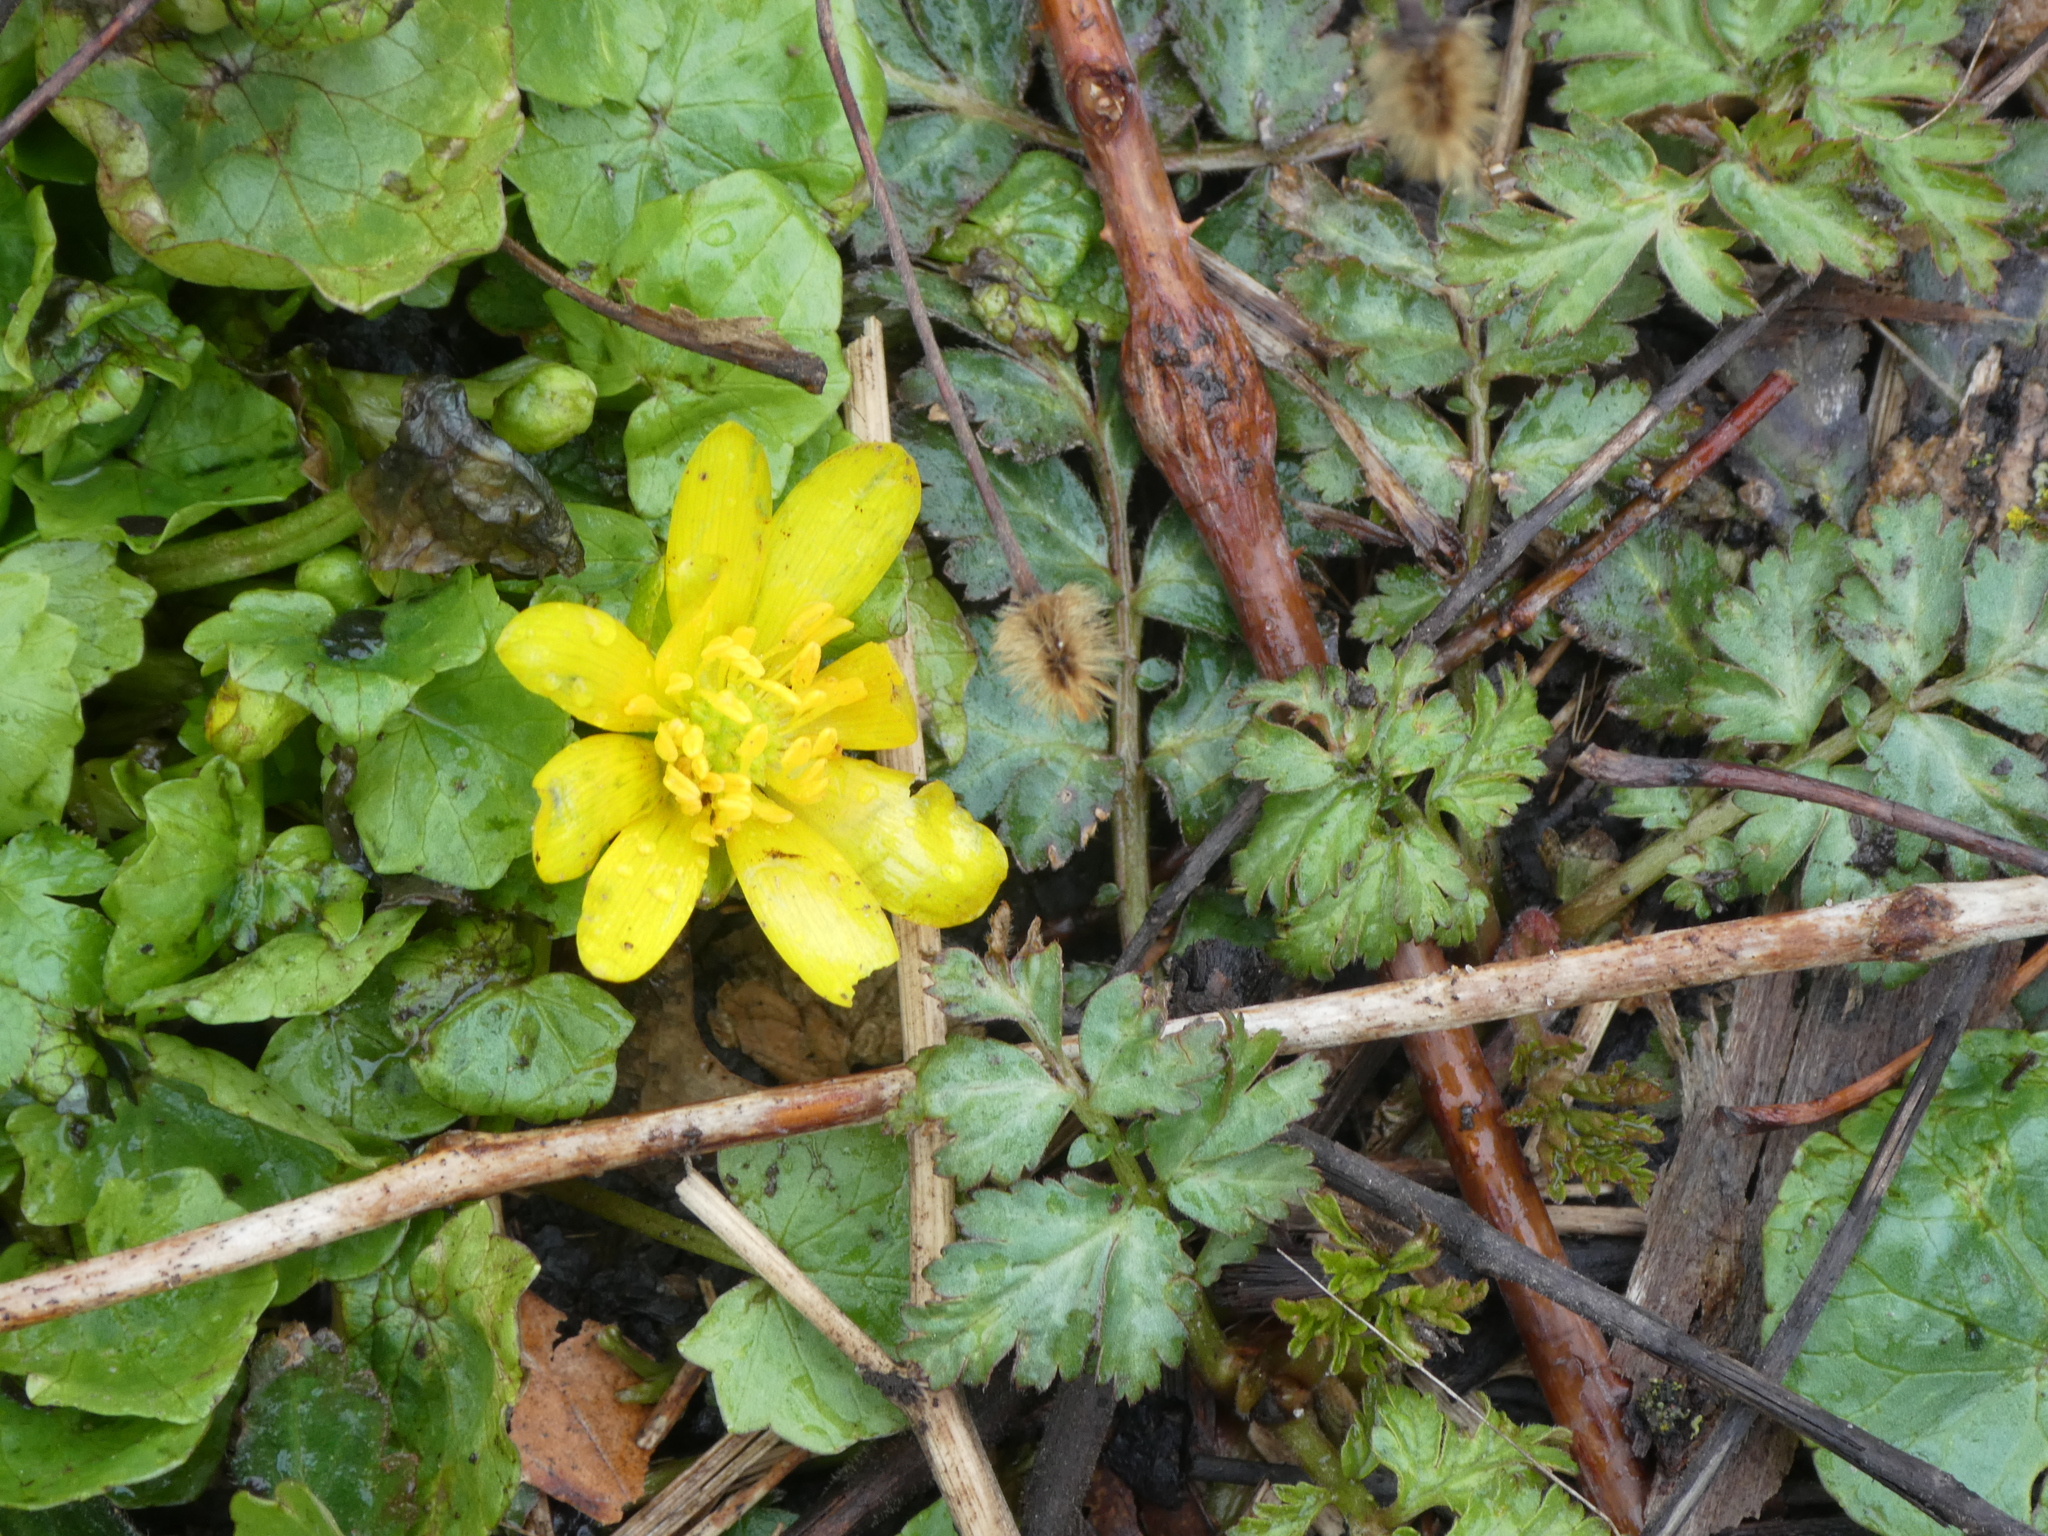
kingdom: Plantae
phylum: Tracheophyta
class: Magnoliopsida
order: Ranunculales
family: Ranunculaceae
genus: Ficaria
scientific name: Ficaria verna
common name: Lesser celandine
